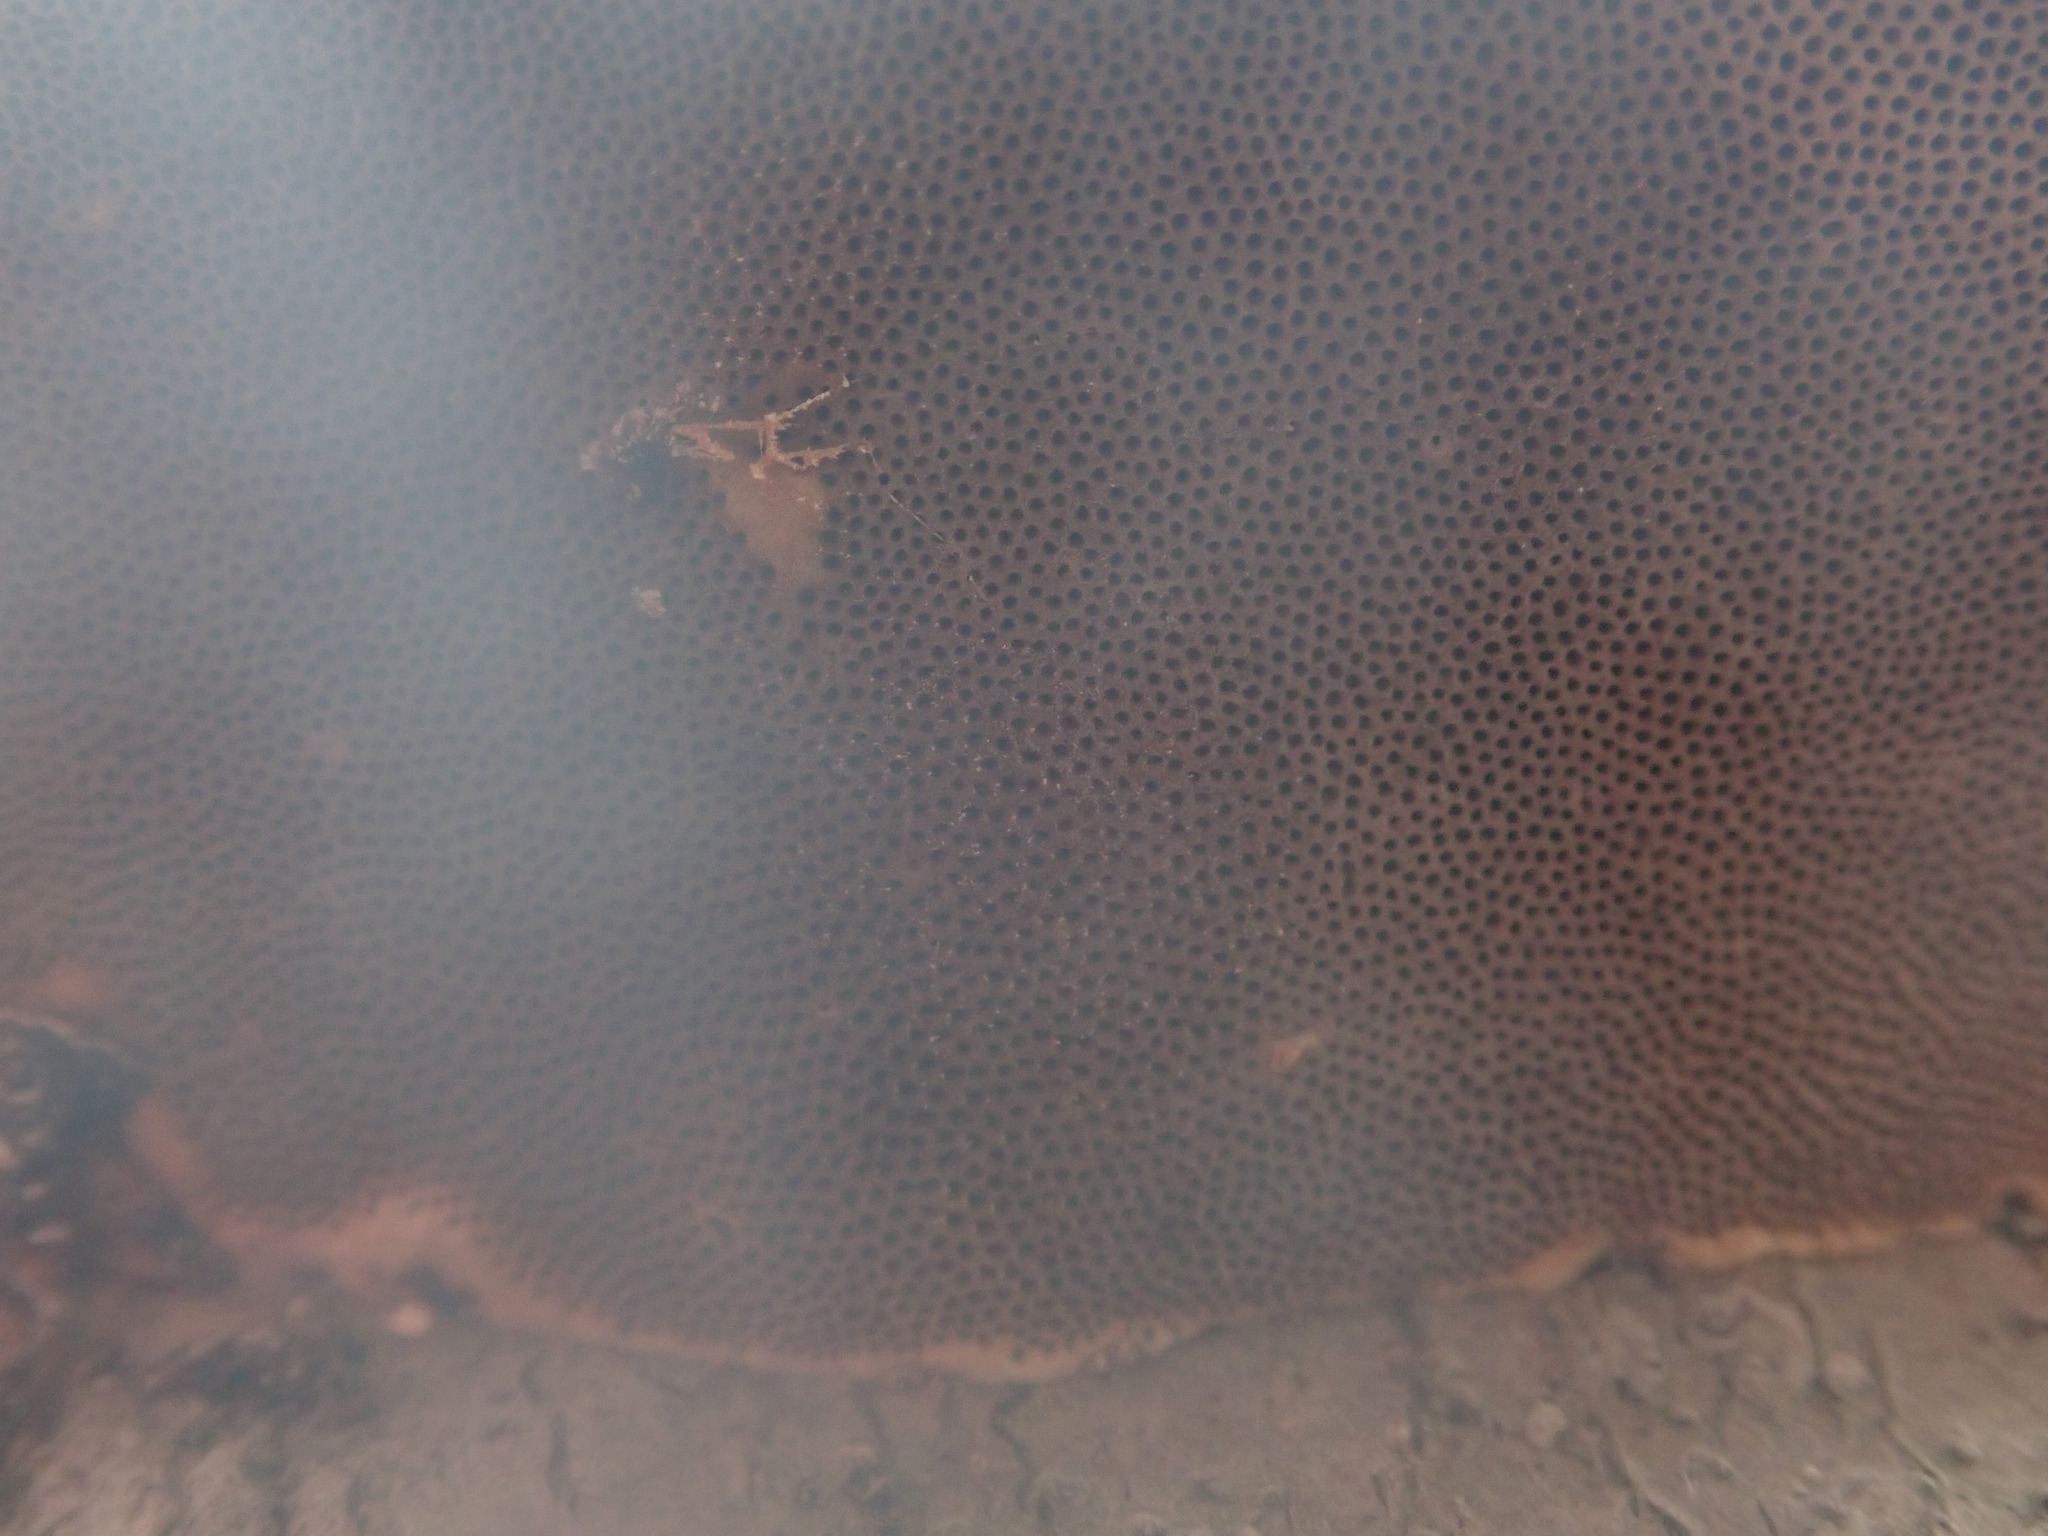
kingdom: Fungi
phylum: Basidiomycota
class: Agaricomycetes
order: Polyporales
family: Polyporaceae
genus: Fomes
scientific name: Fomes fomentarius
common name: Hoof fungus
